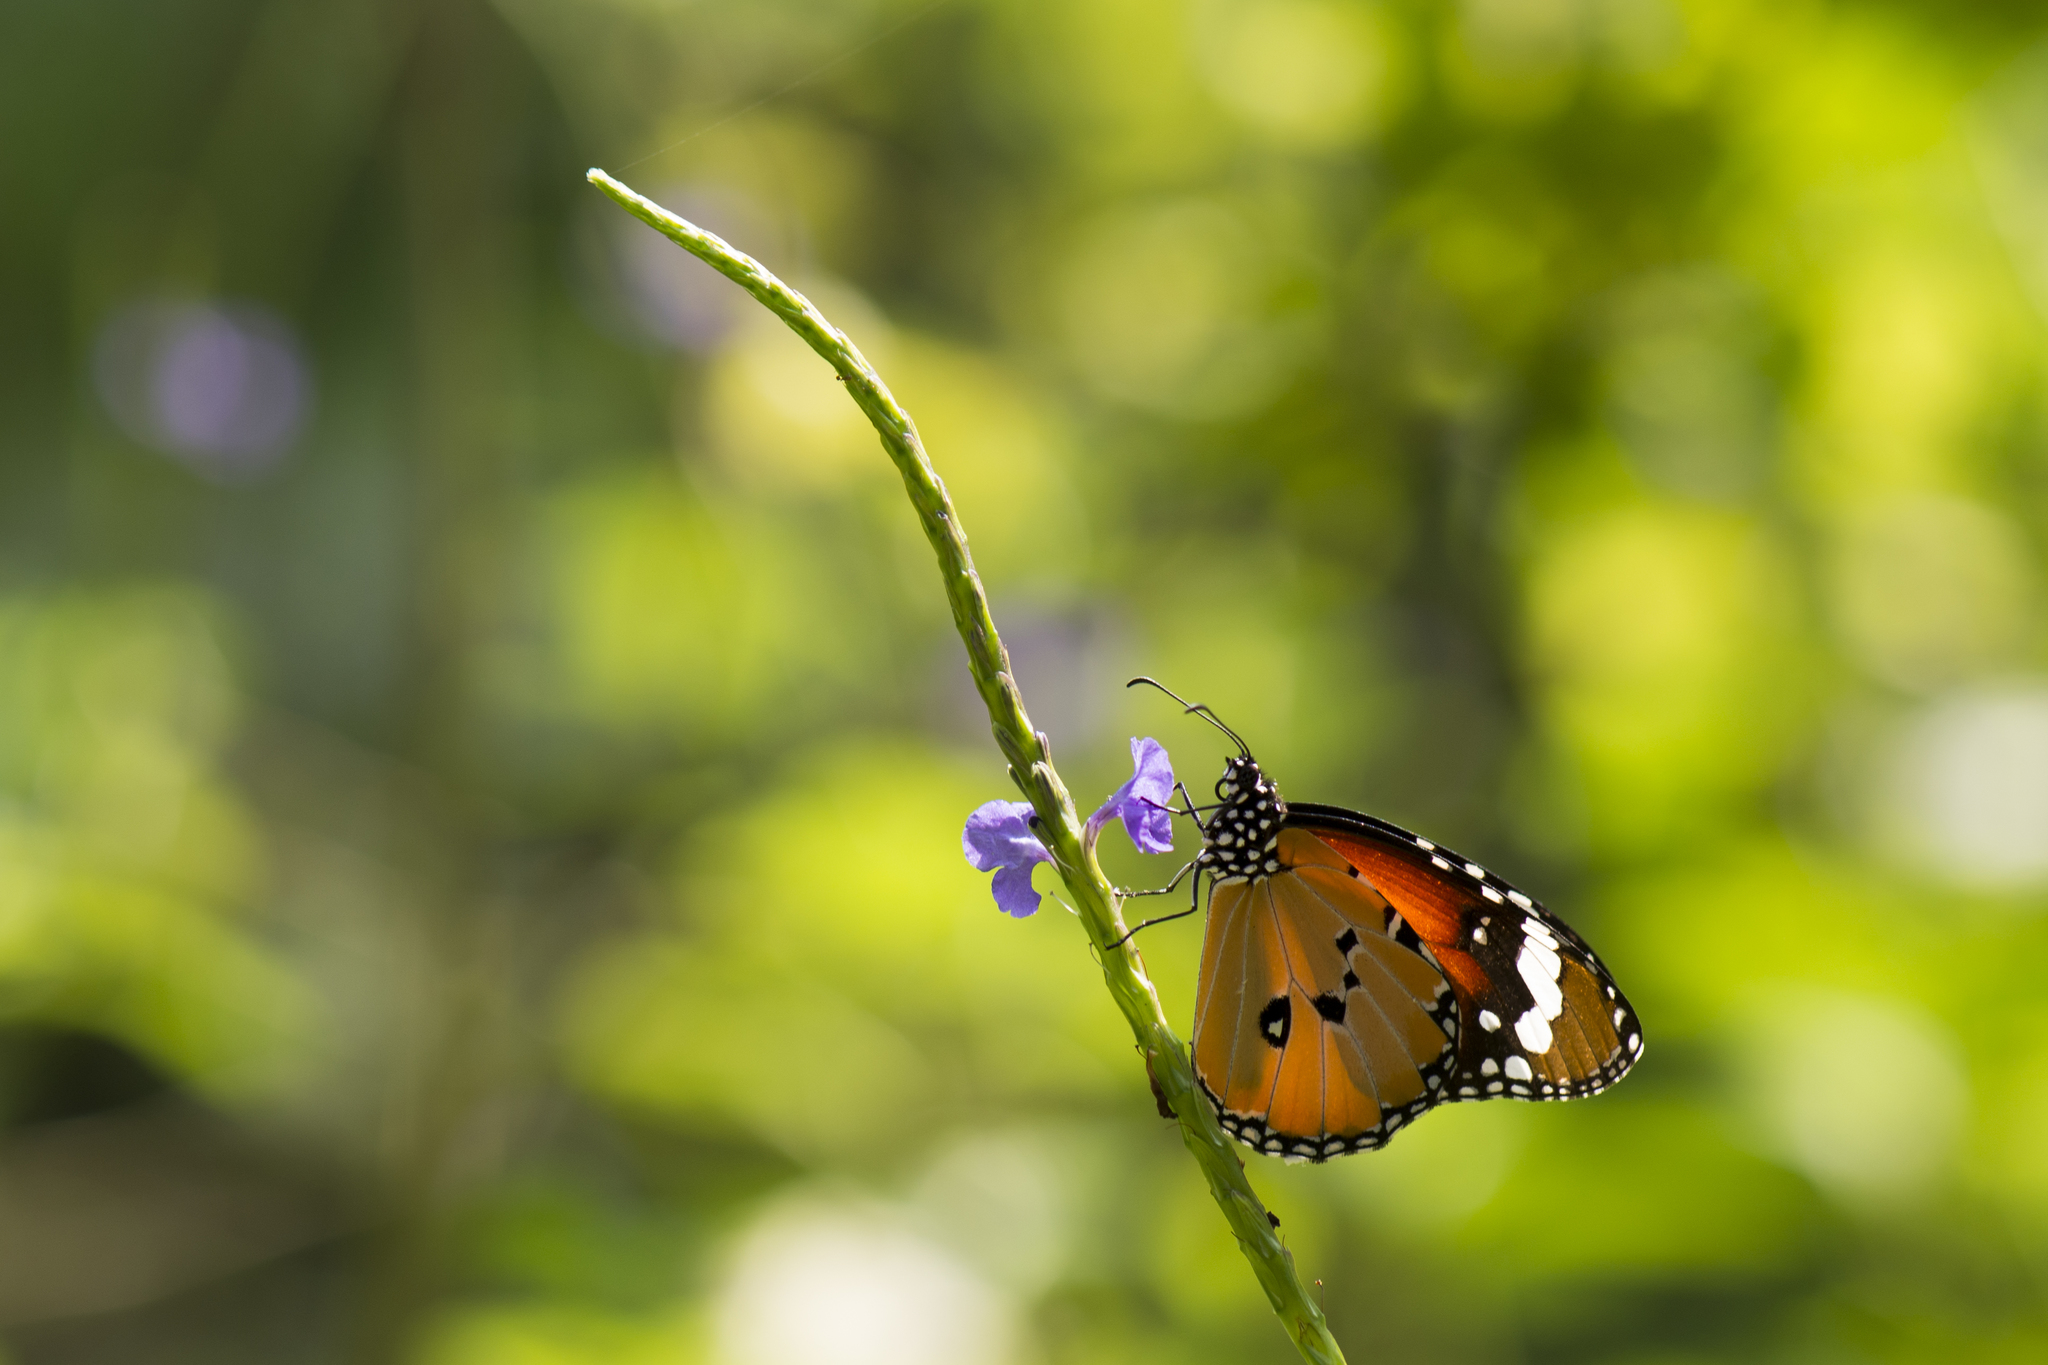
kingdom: Animalia
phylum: Arthropoda
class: Insecta
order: Lepidoptera
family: Nymphalidae
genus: Danaus
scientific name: Danaus chrysippus
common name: Plain tiger
